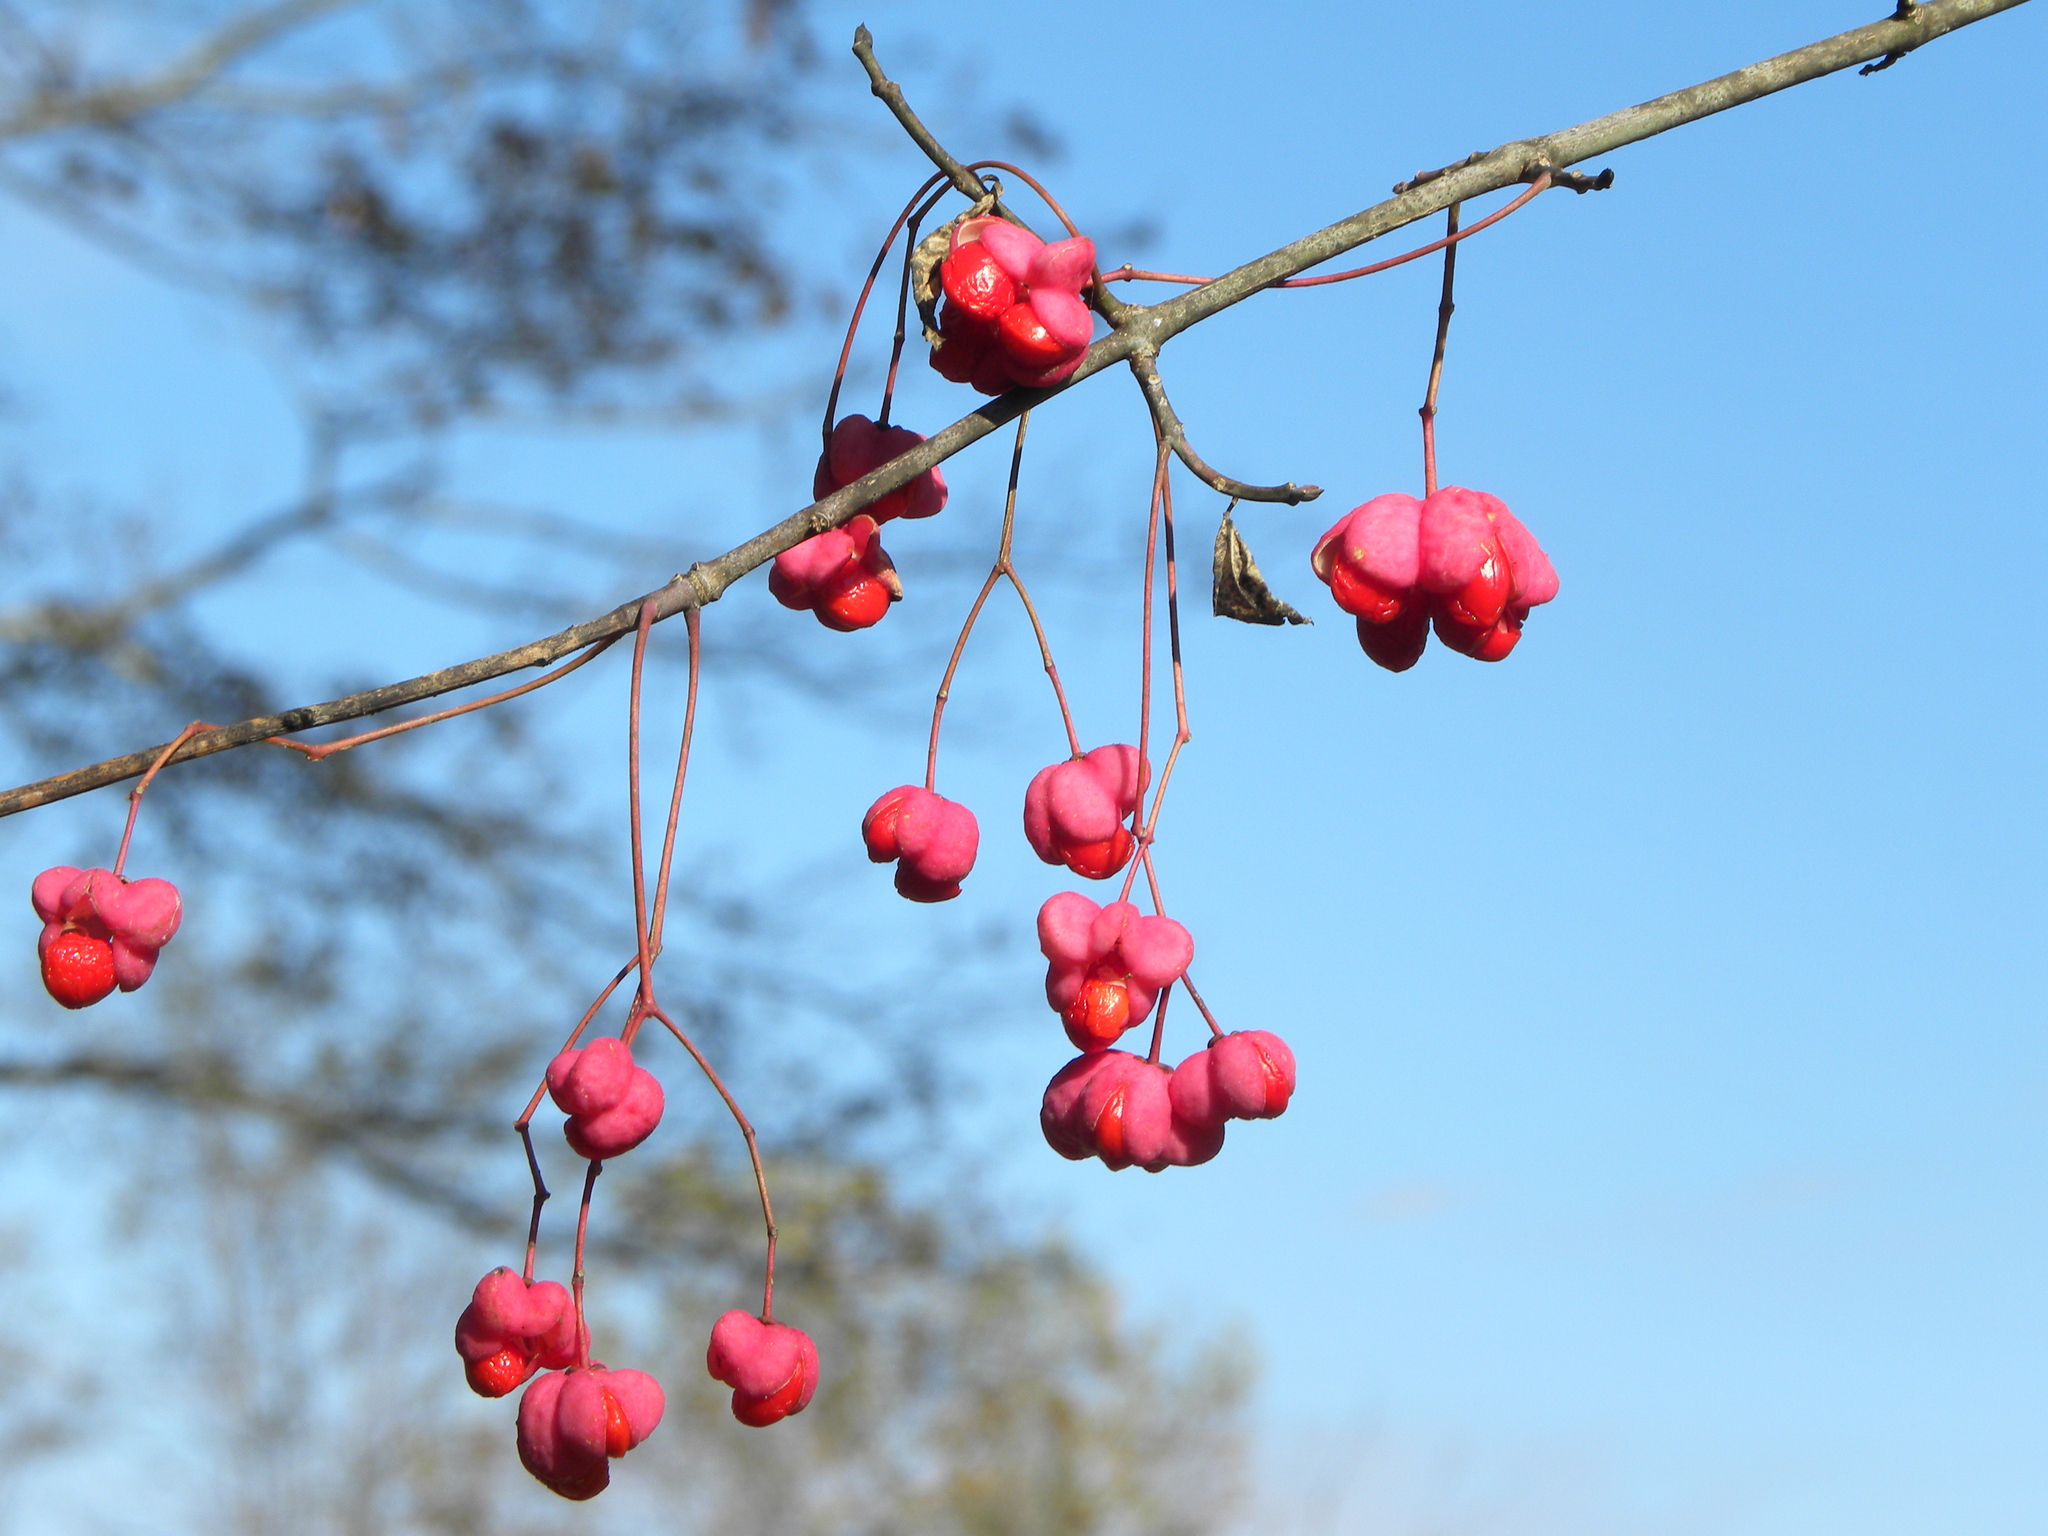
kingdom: Plantae
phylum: Tracheophyta
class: Magnoliopsida
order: Celastrales
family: Celastraceae
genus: Euonymus
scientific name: Euonymus atropurpureus
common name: Eastern wahoo
